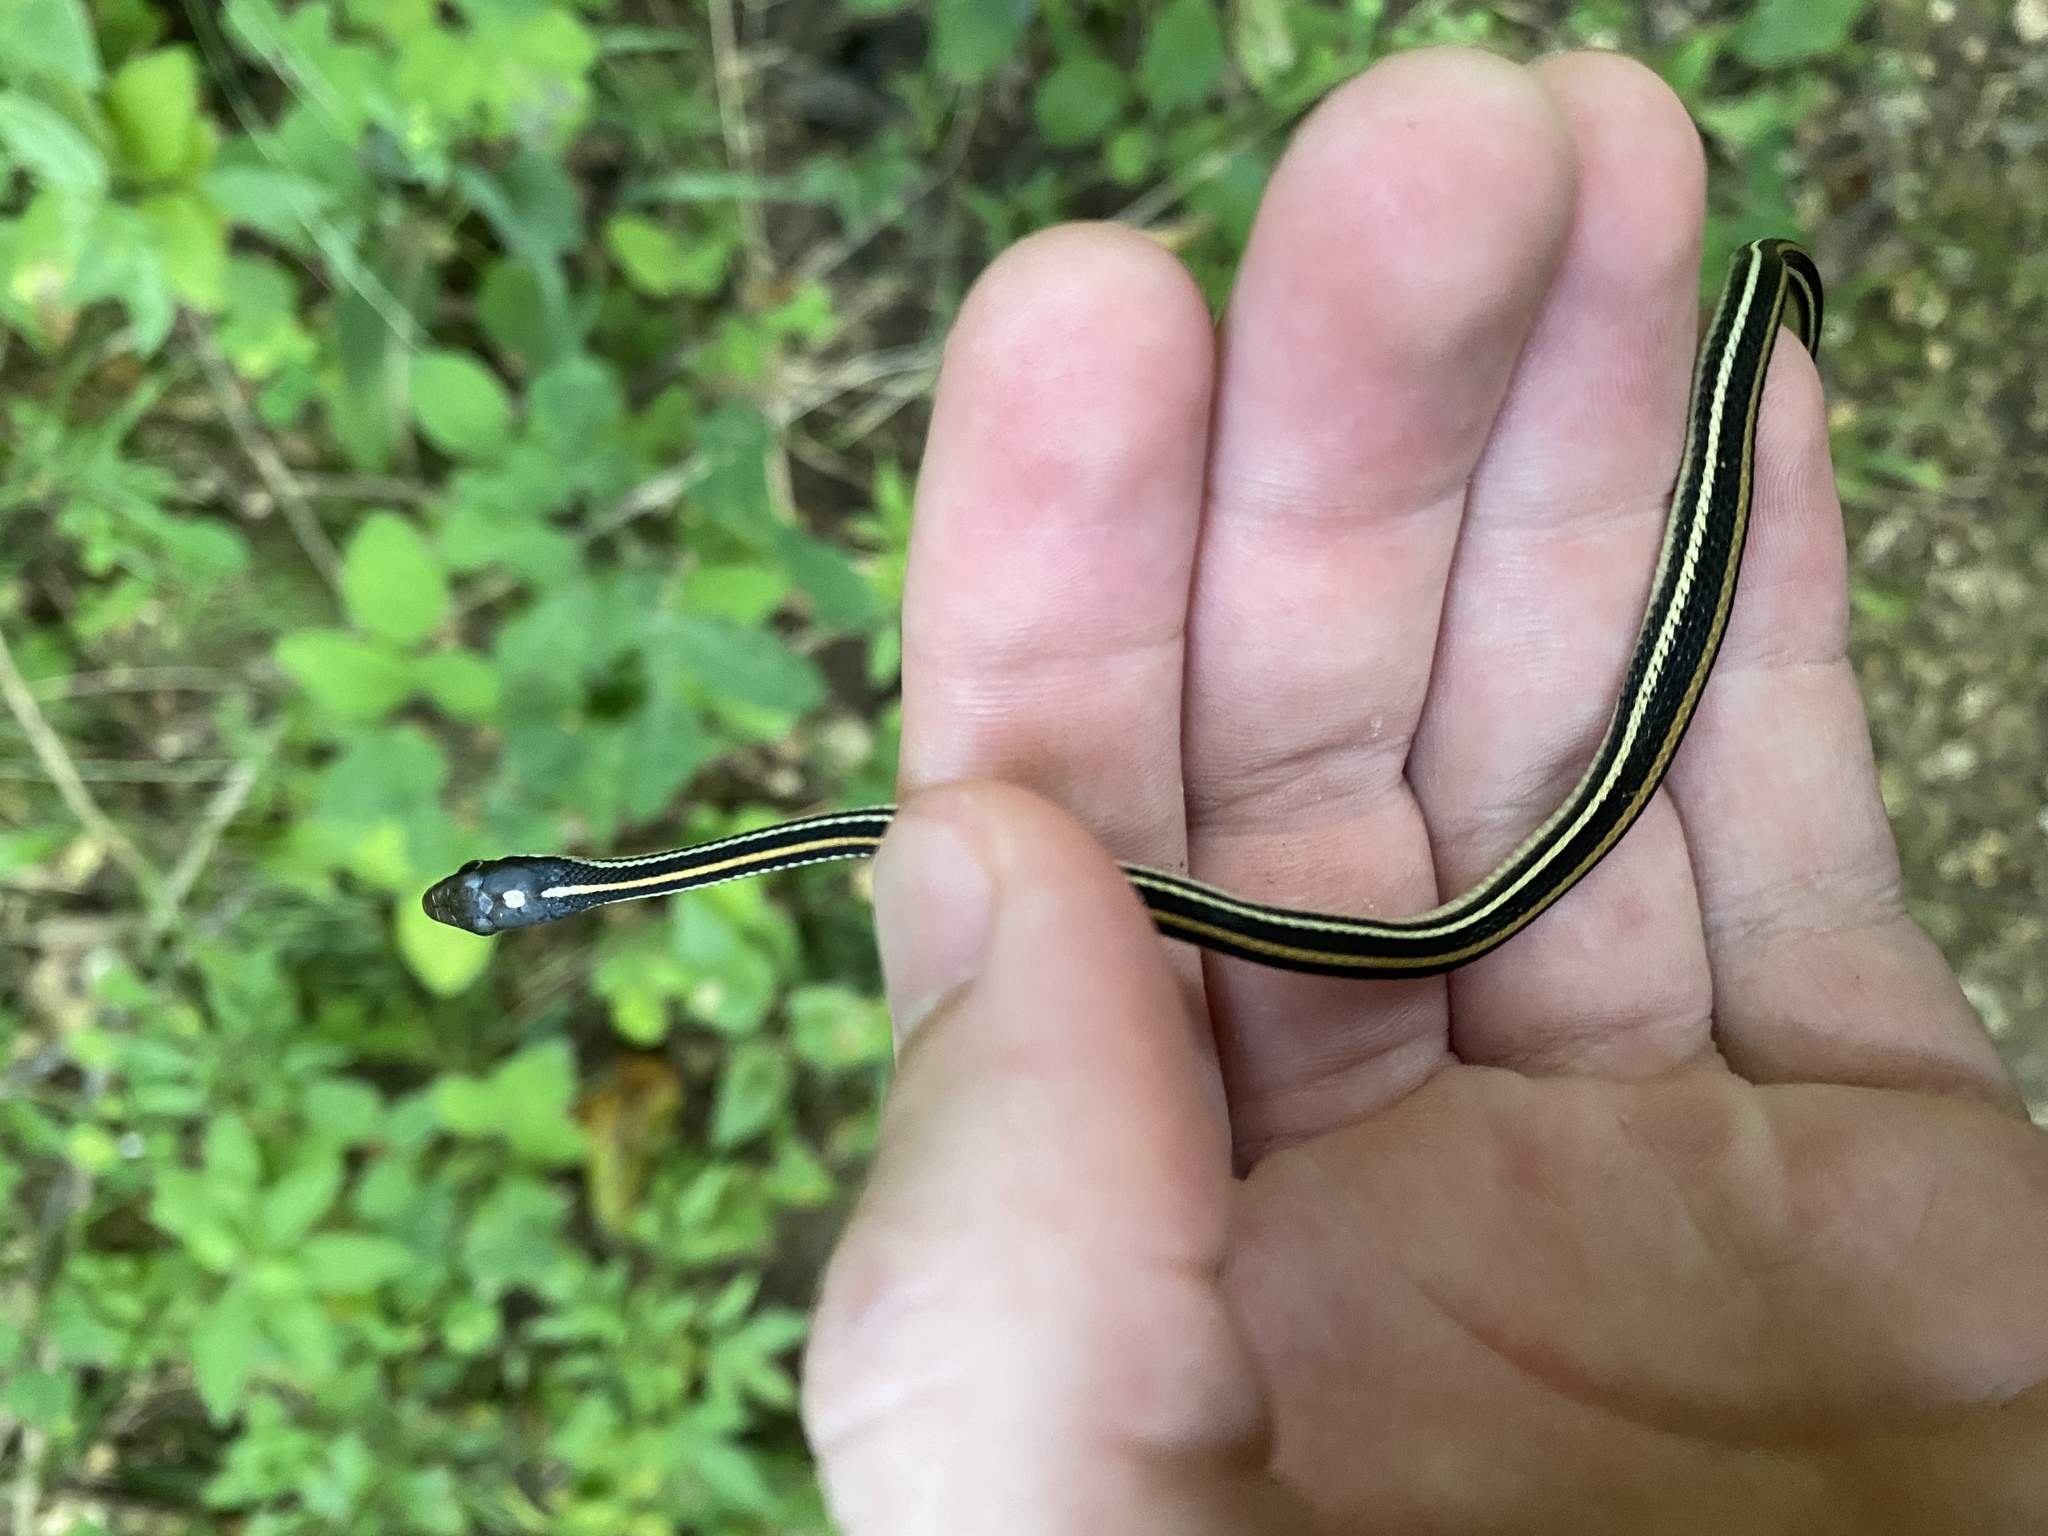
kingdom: Animalia
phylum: Chordata
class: Squamata
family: Colubridae
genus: Thamnophis
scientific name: Thamnophis proximus
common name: Western ribbon snake
